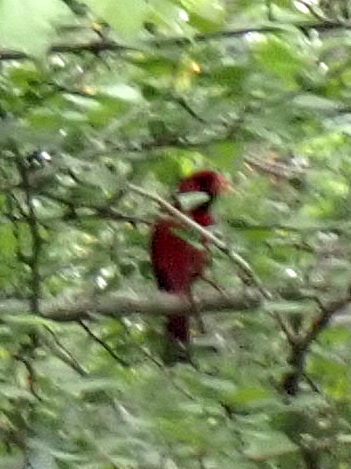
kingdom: Animalia
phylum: Chordata
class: Aves
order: Passeriformes
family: Cardinalidae
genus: Cardinalis
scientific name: Cardinalis cardinalis
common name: Northern cardinal
